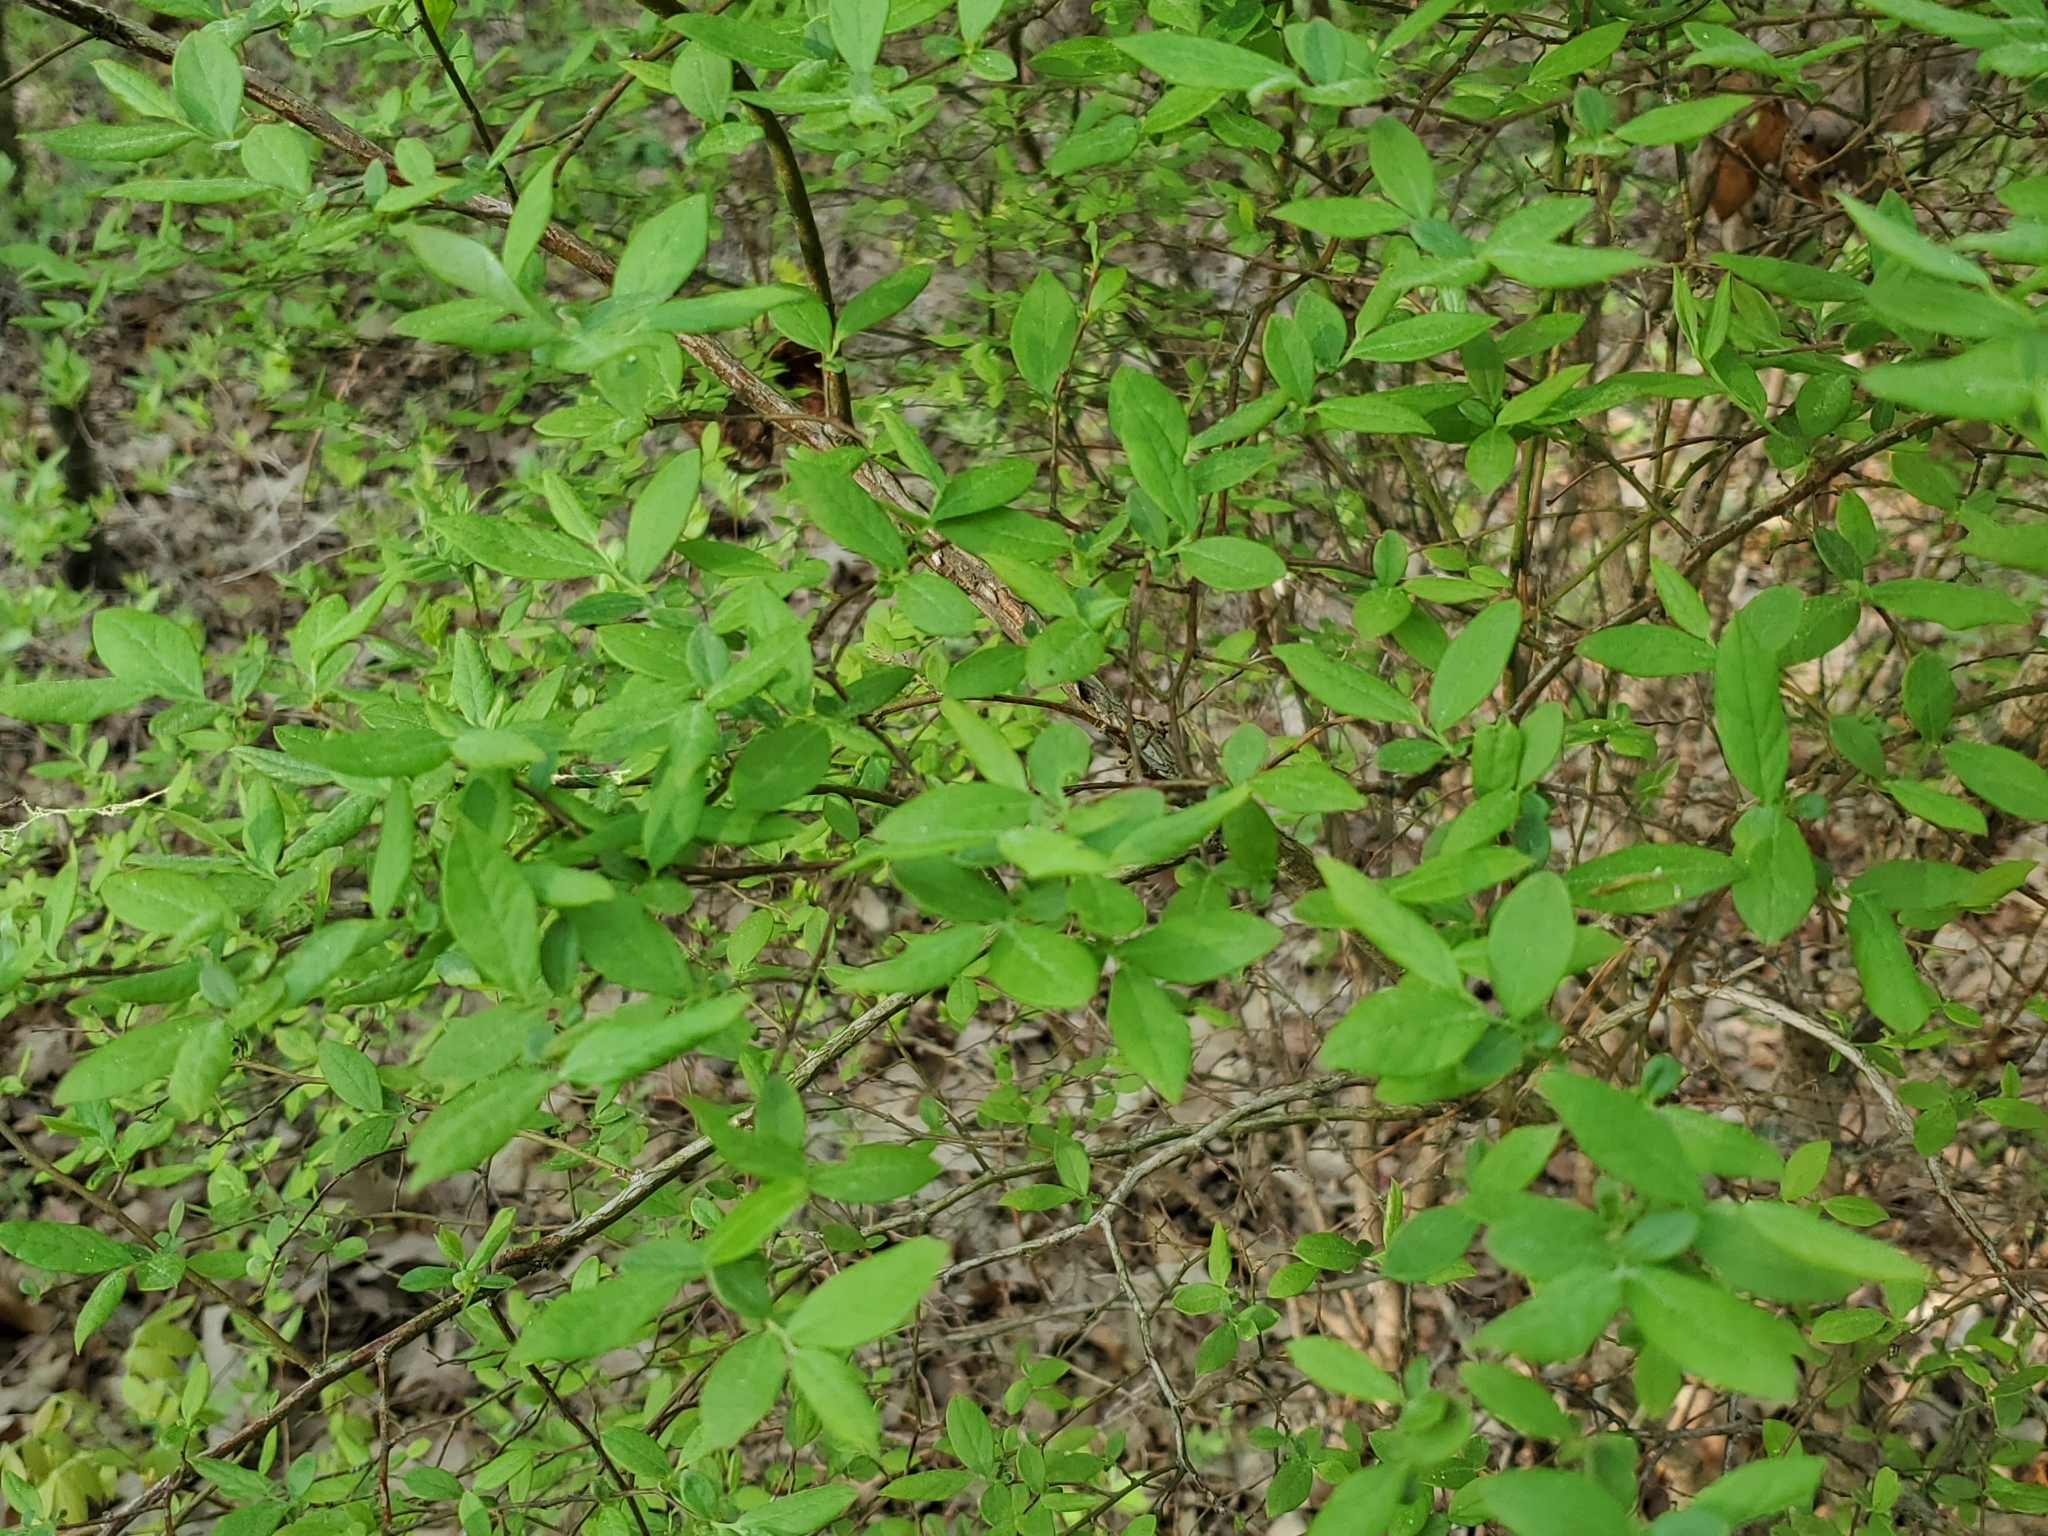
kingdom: Plantae
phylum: Tracheophyta
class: Magnoliopsida
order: Ericales
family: Ericaceae
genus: Vaccinium
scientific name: Vaccinium corymbosum
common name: Blueberry
